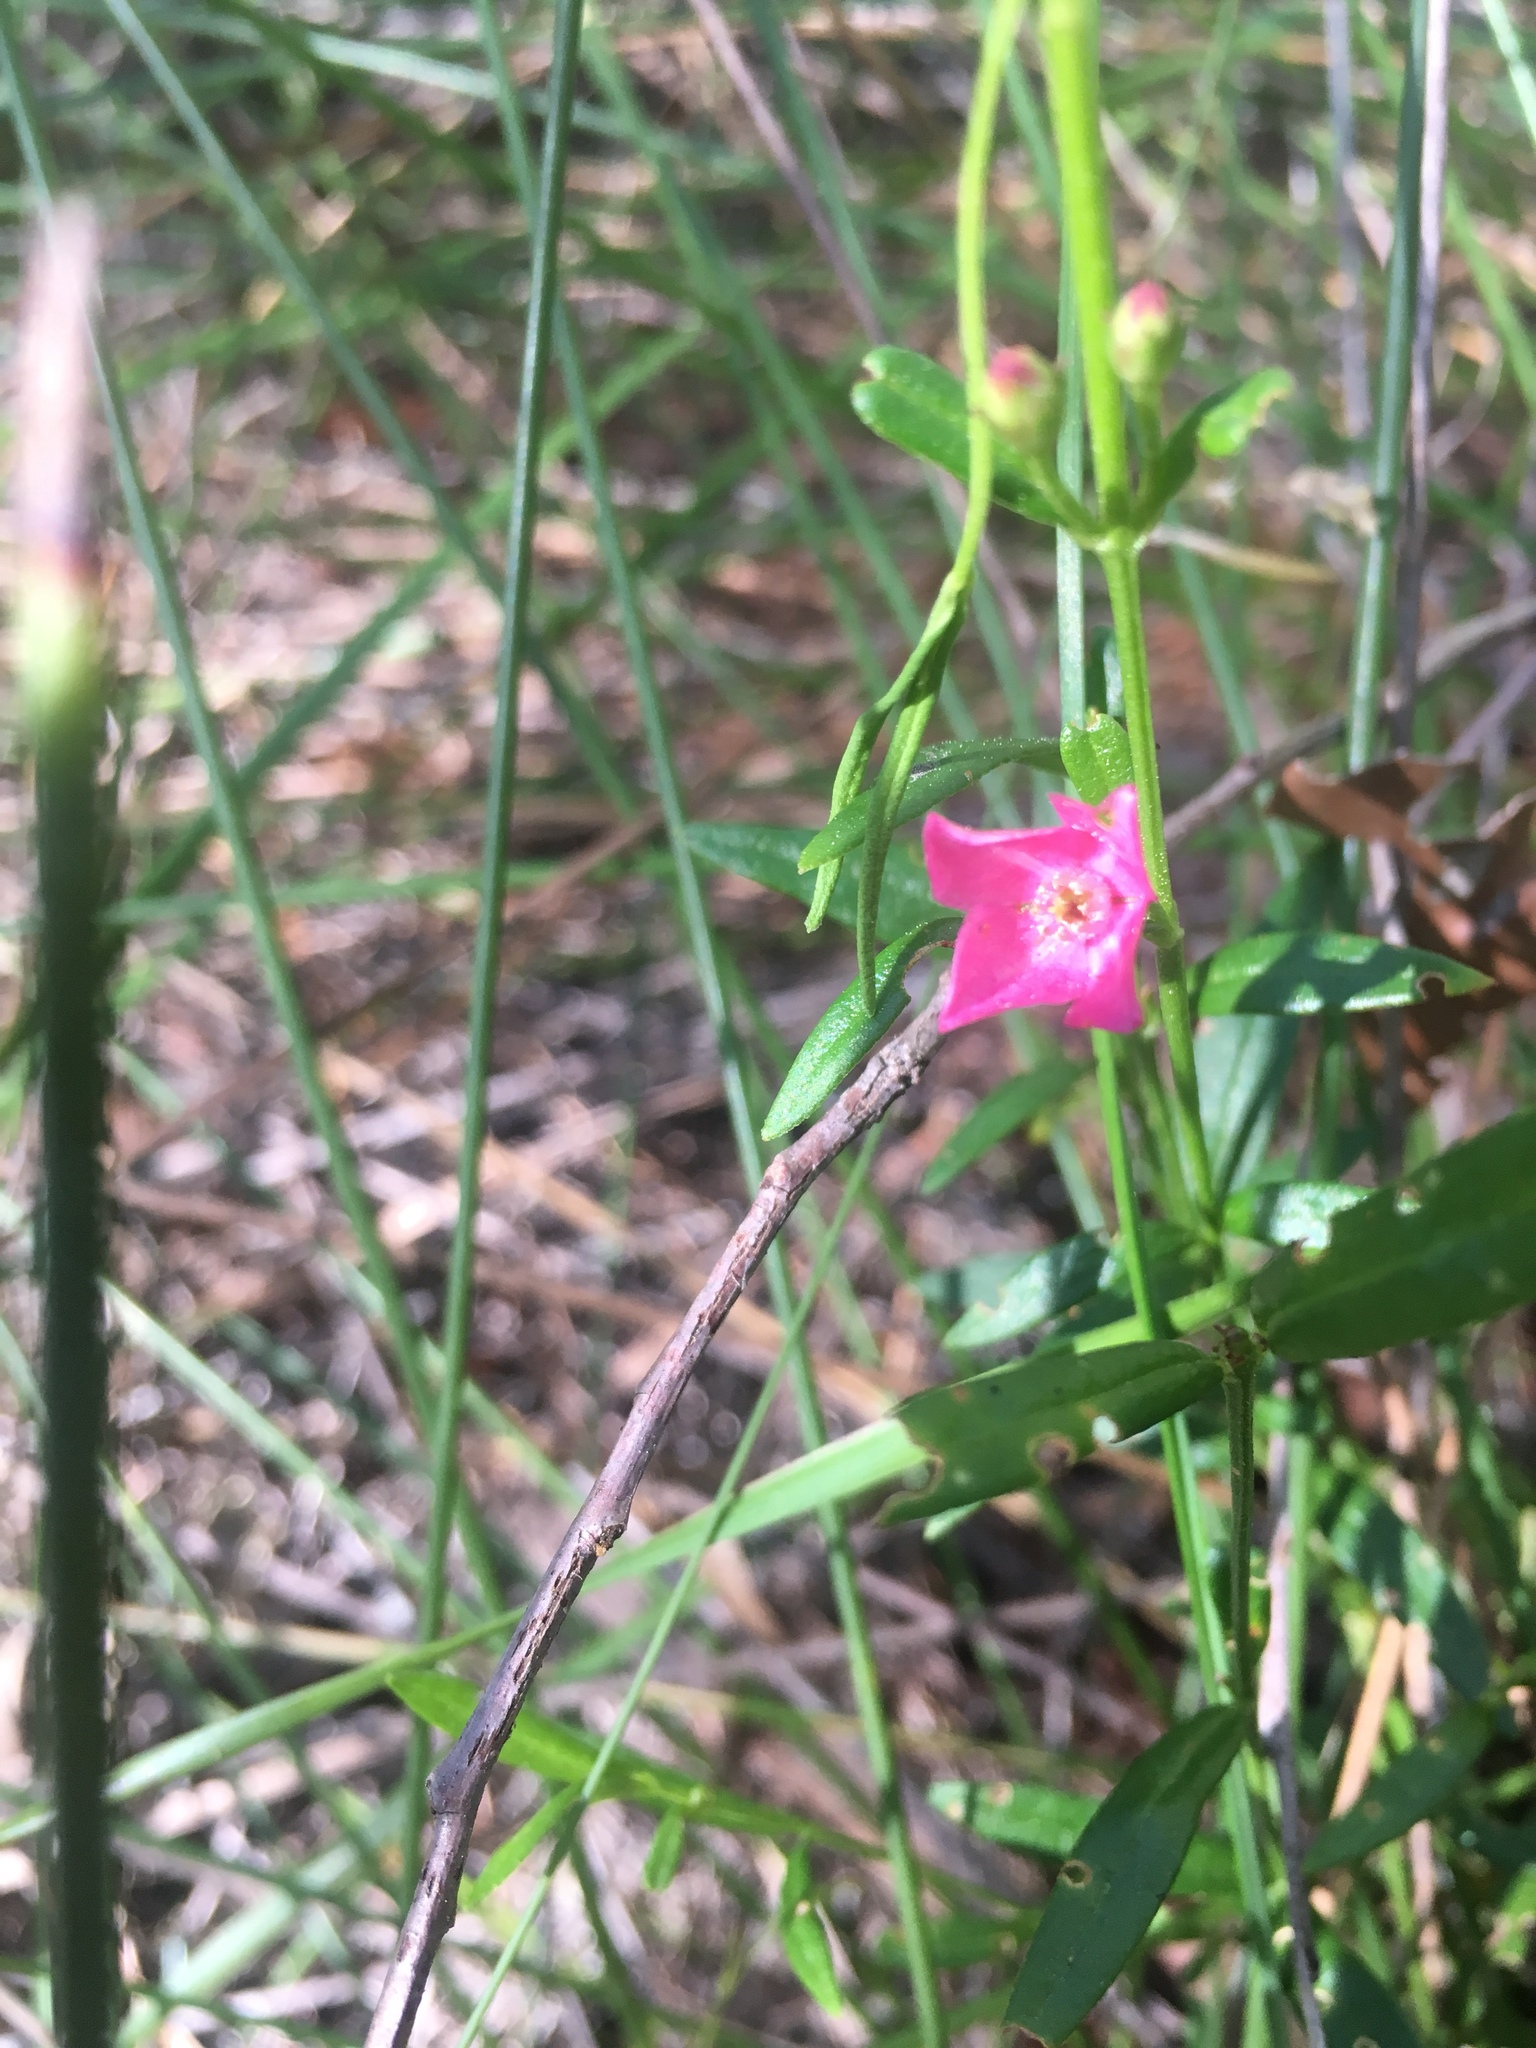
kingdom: Plantae
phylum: Tracheophyta
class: Magnoliopsida
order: Sapindales
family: Rutaceae
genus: Cyanothamnus
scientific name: Cyanothamnus polygalifolius
